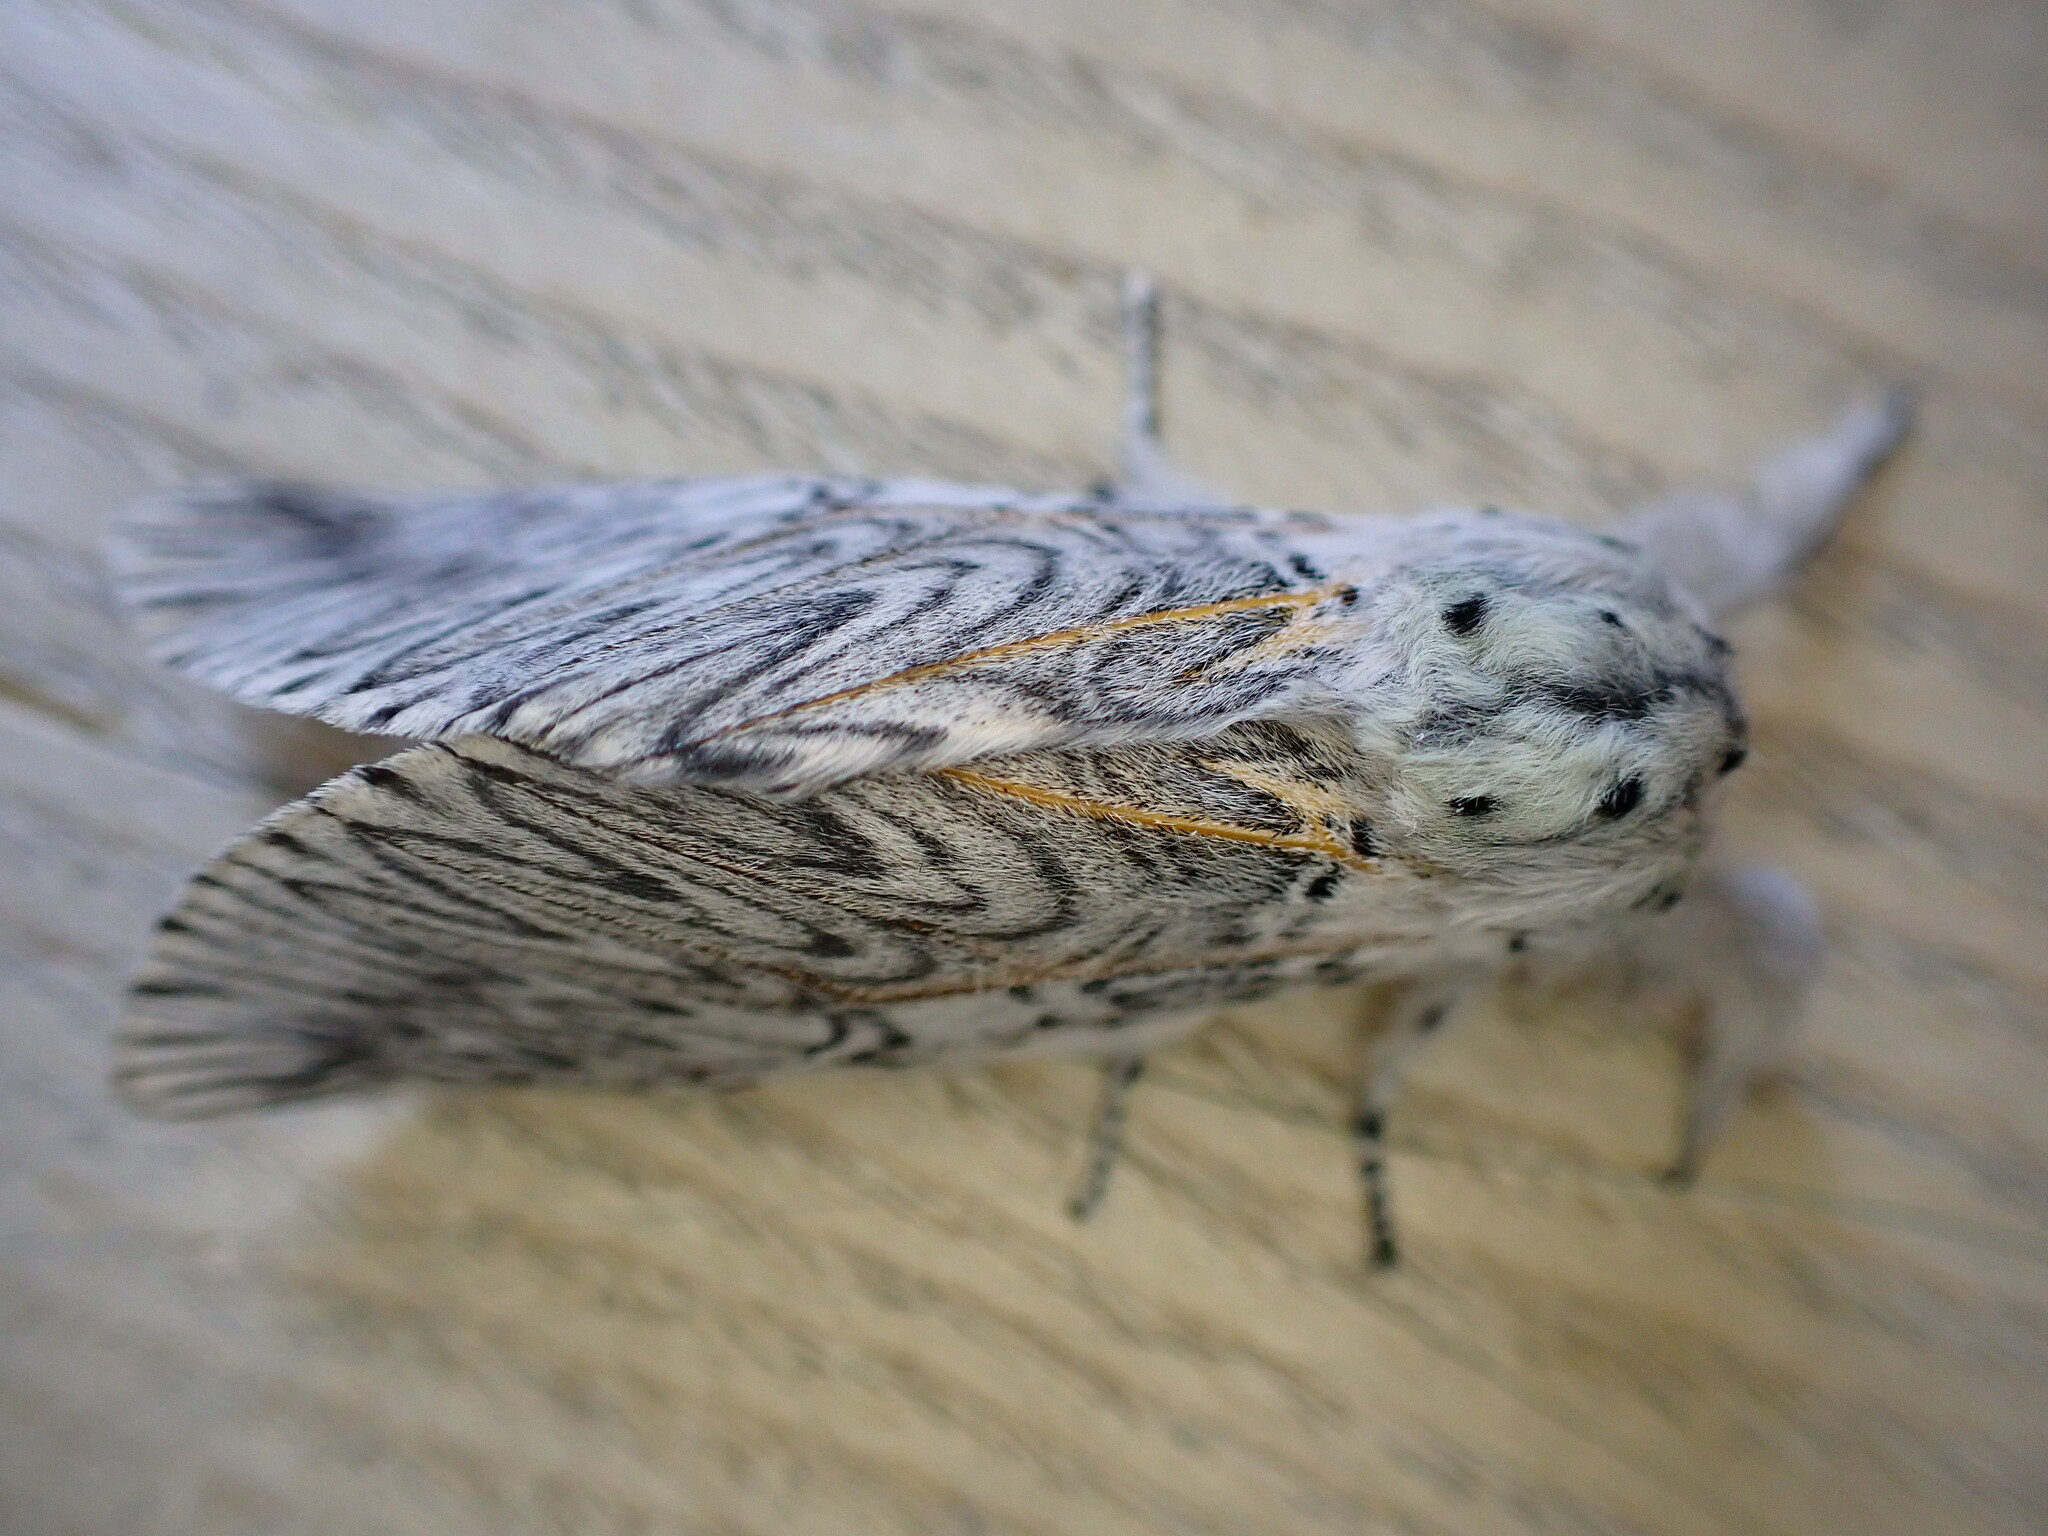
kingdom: Animalia
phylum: Arthropoda
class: Insecta
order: Lepidoptera
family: Notodontidae
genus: Cerura
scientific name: Cerura vinula
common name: Puss moth
